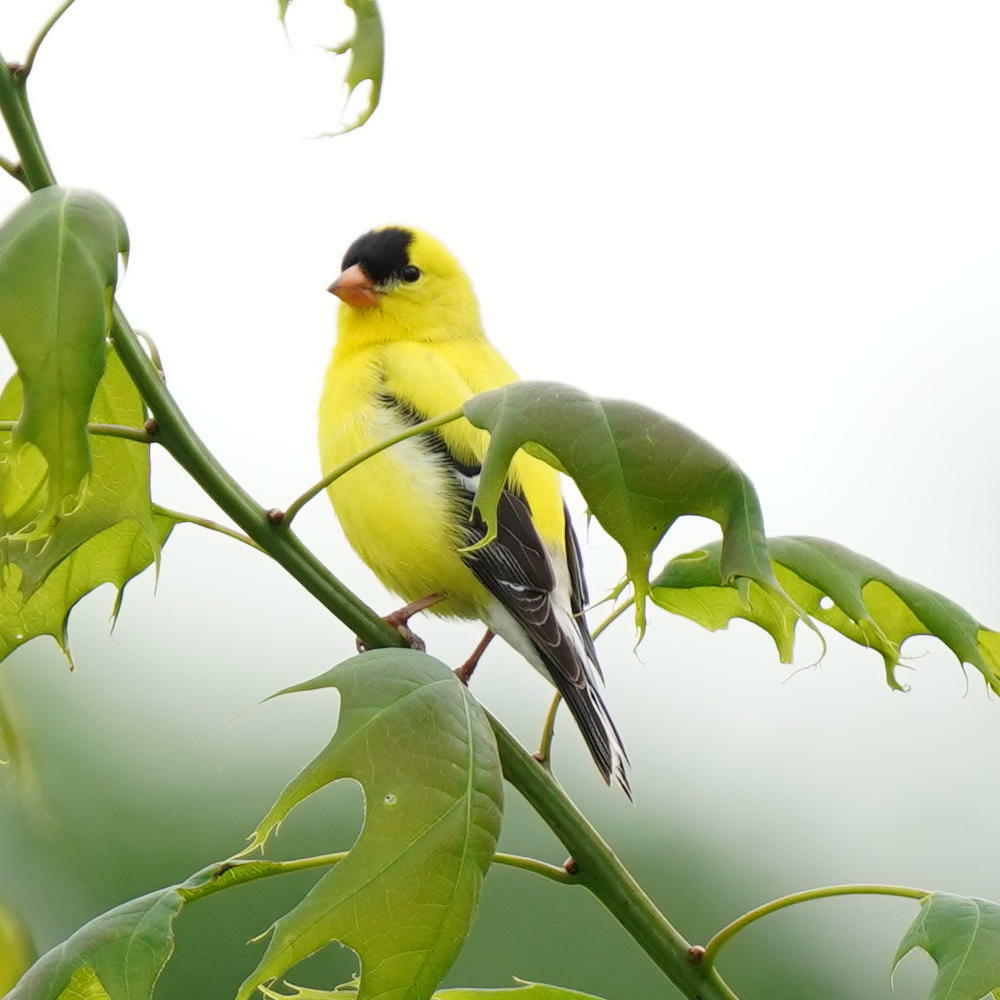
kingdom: Animalia
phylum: Chordata
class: Aves
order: Passeriformes
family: Fringillidae
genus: Spinus
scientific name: Spinus tristis
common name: American goldfinch
